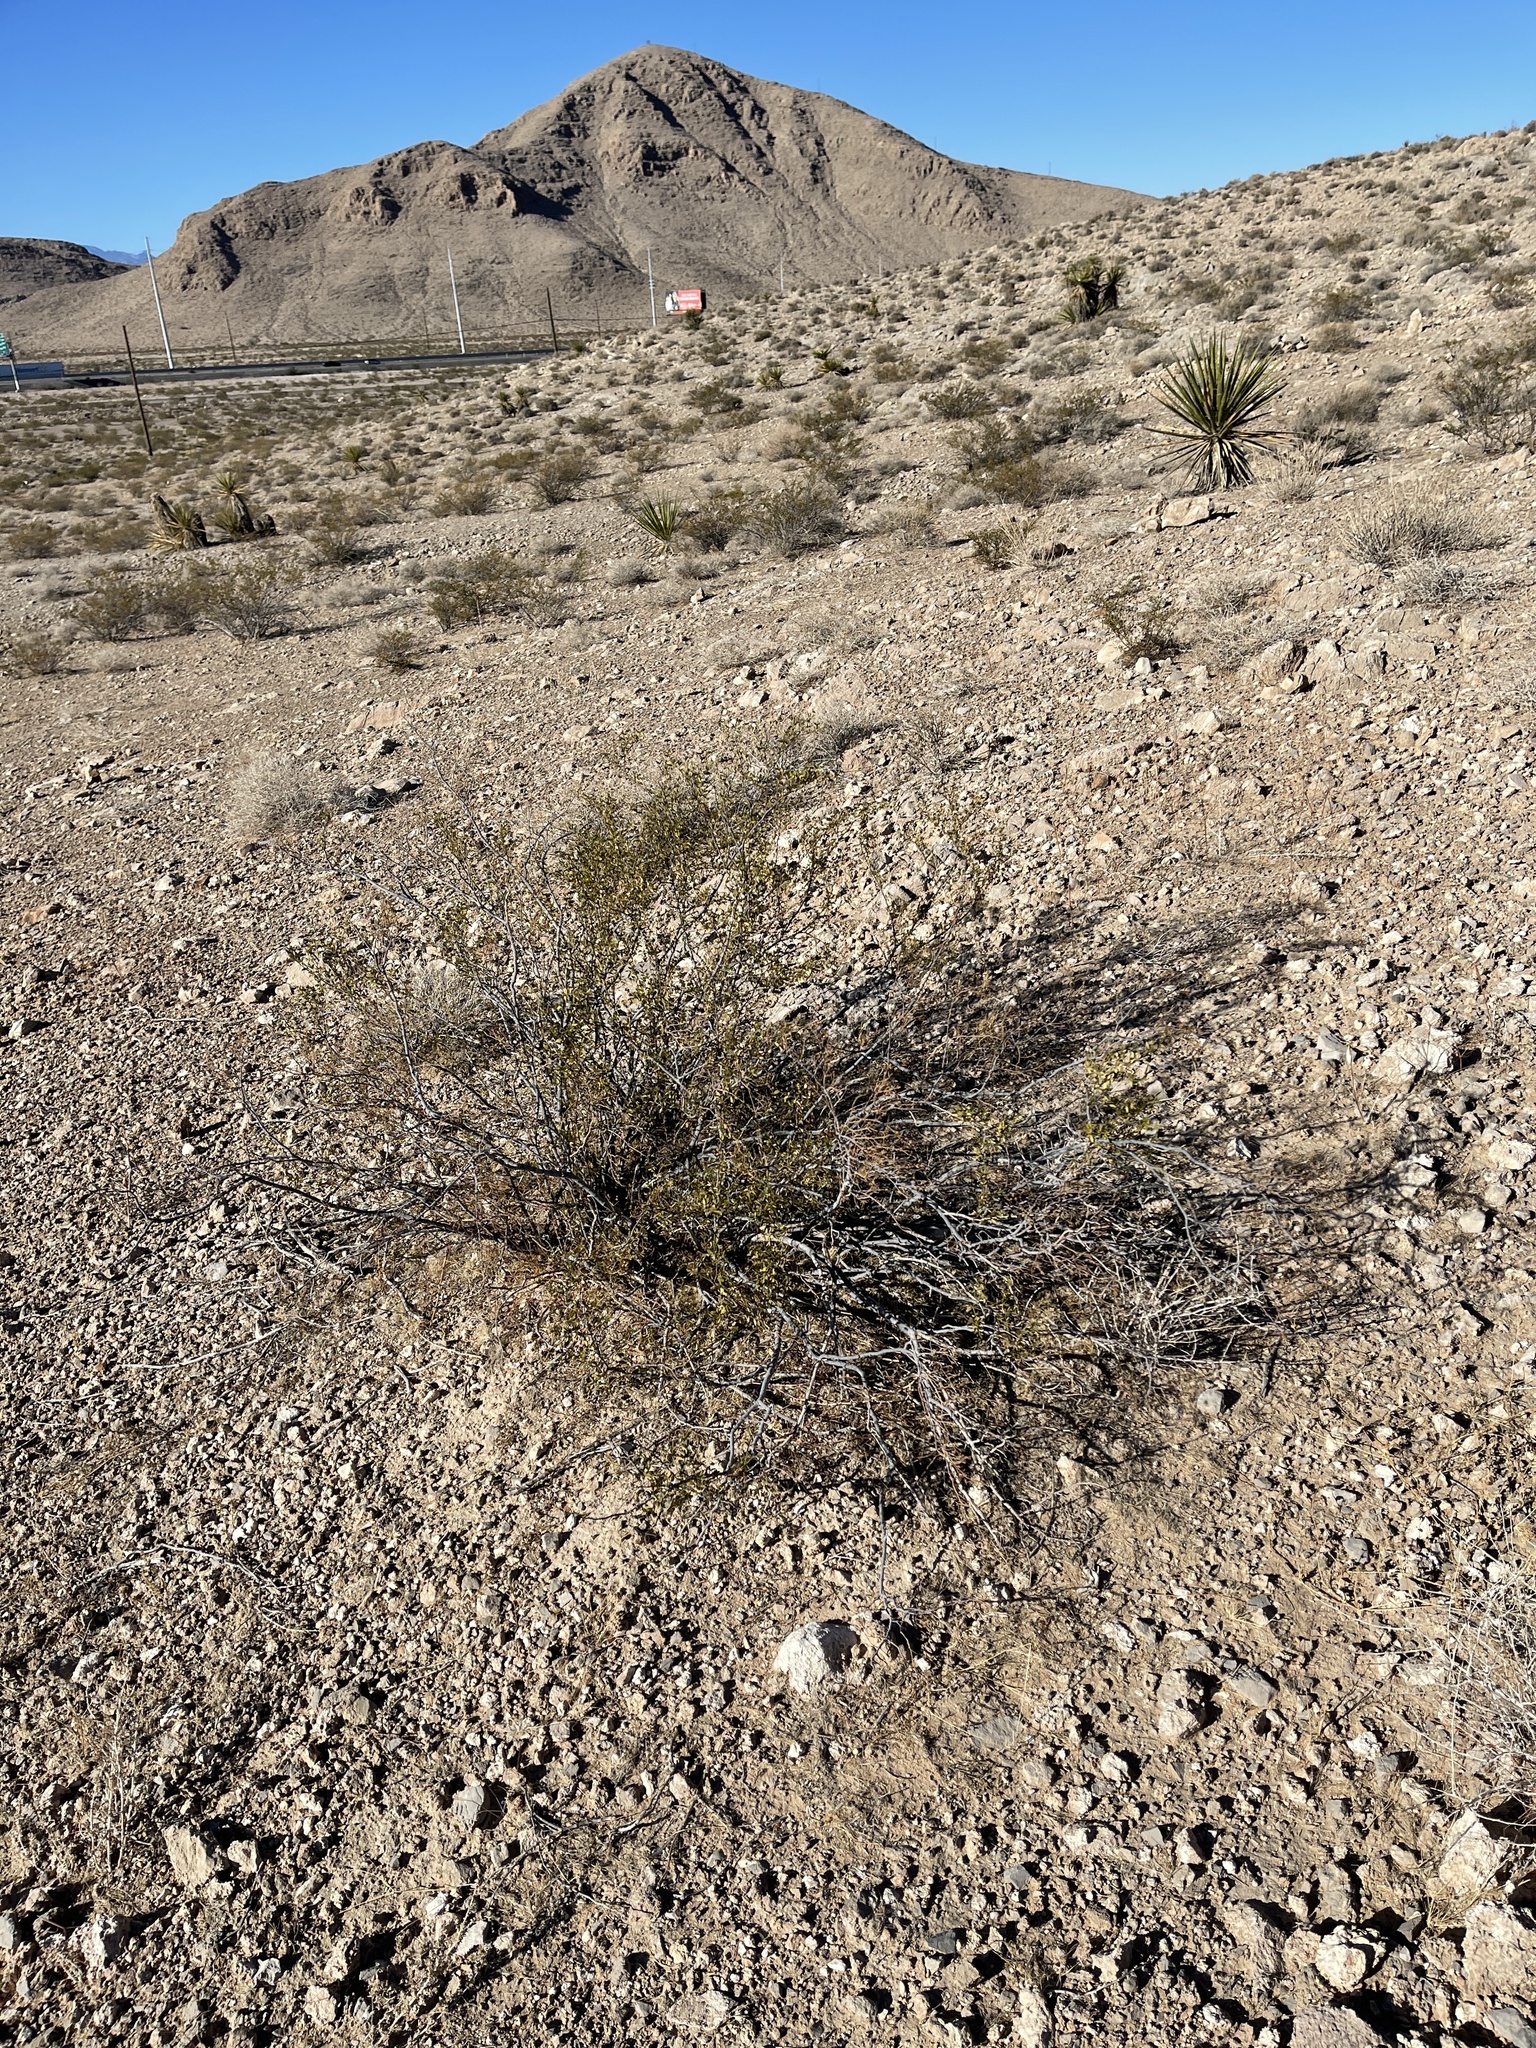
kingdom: Plantae
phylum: Tracheophyta
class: Magnoliopsida
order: Zygophyllales
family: Zygophyllaceae
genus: Larrea
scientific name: Larrea tridentata
